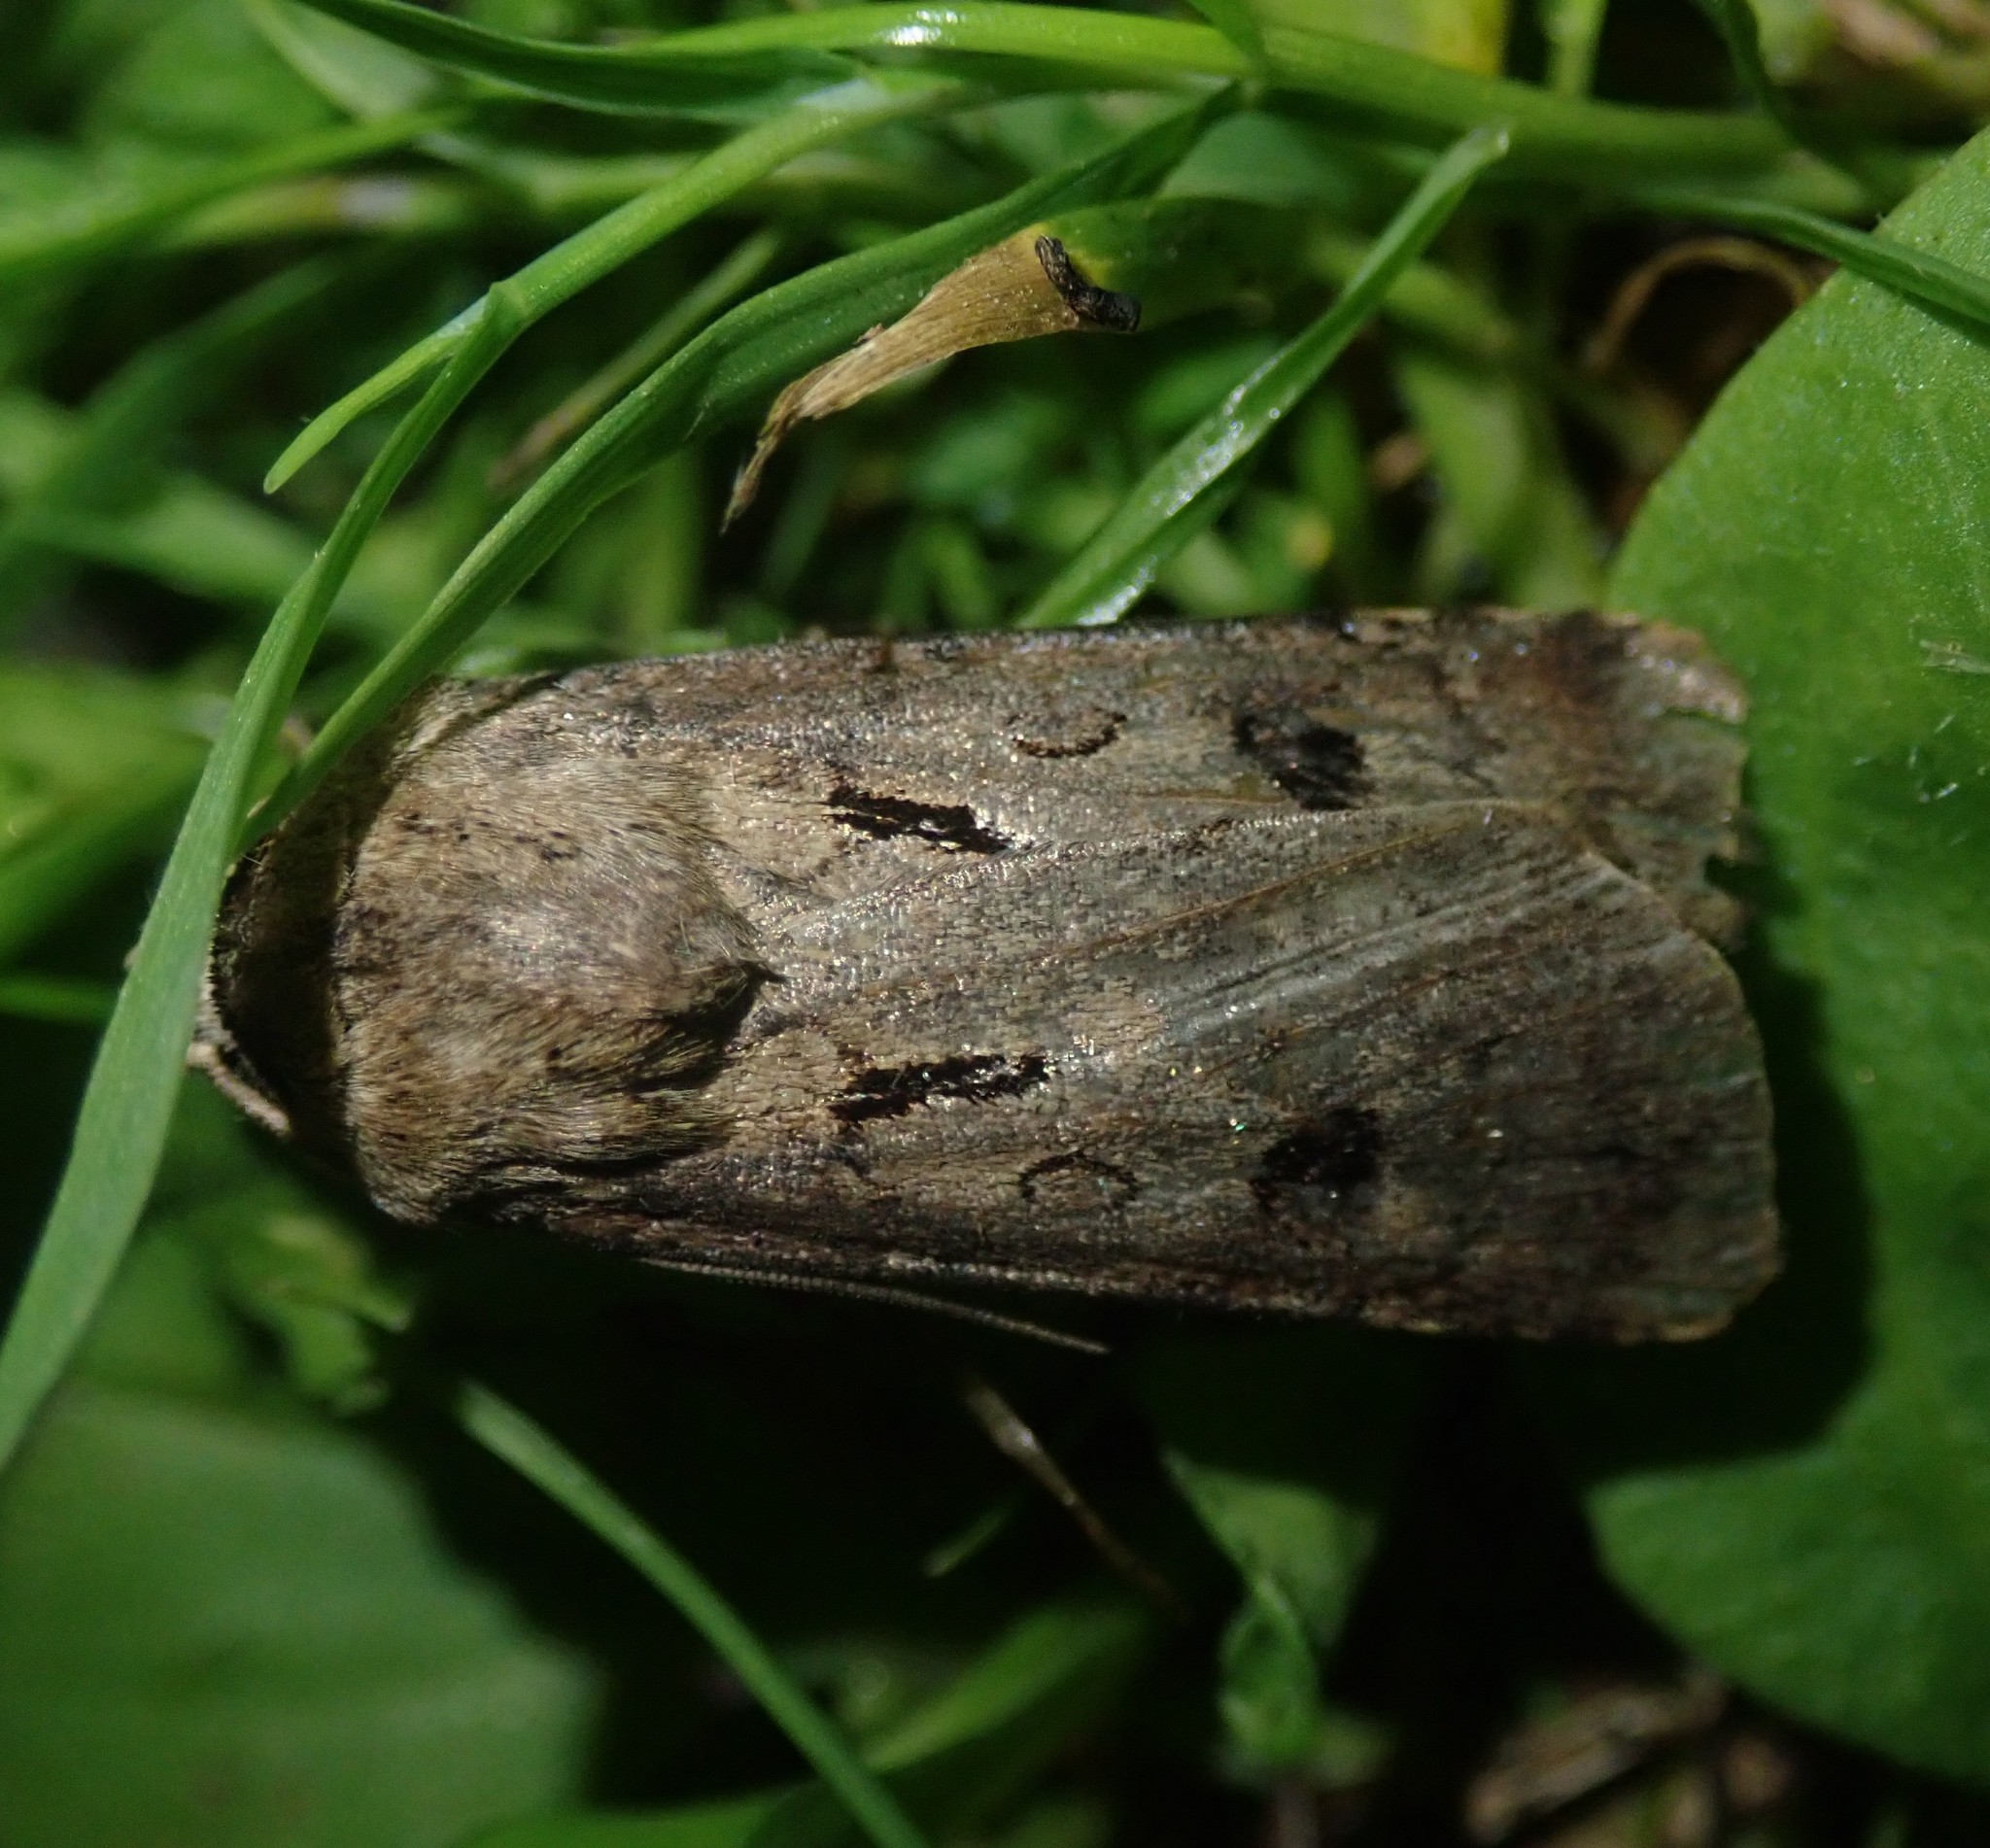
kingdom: Animalia
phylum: Arthropoda
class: Insecta
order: Lepidoptera
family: Noctuidae
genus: Agrotis
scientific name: Agrotis exclamationis
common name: Heart and dart
